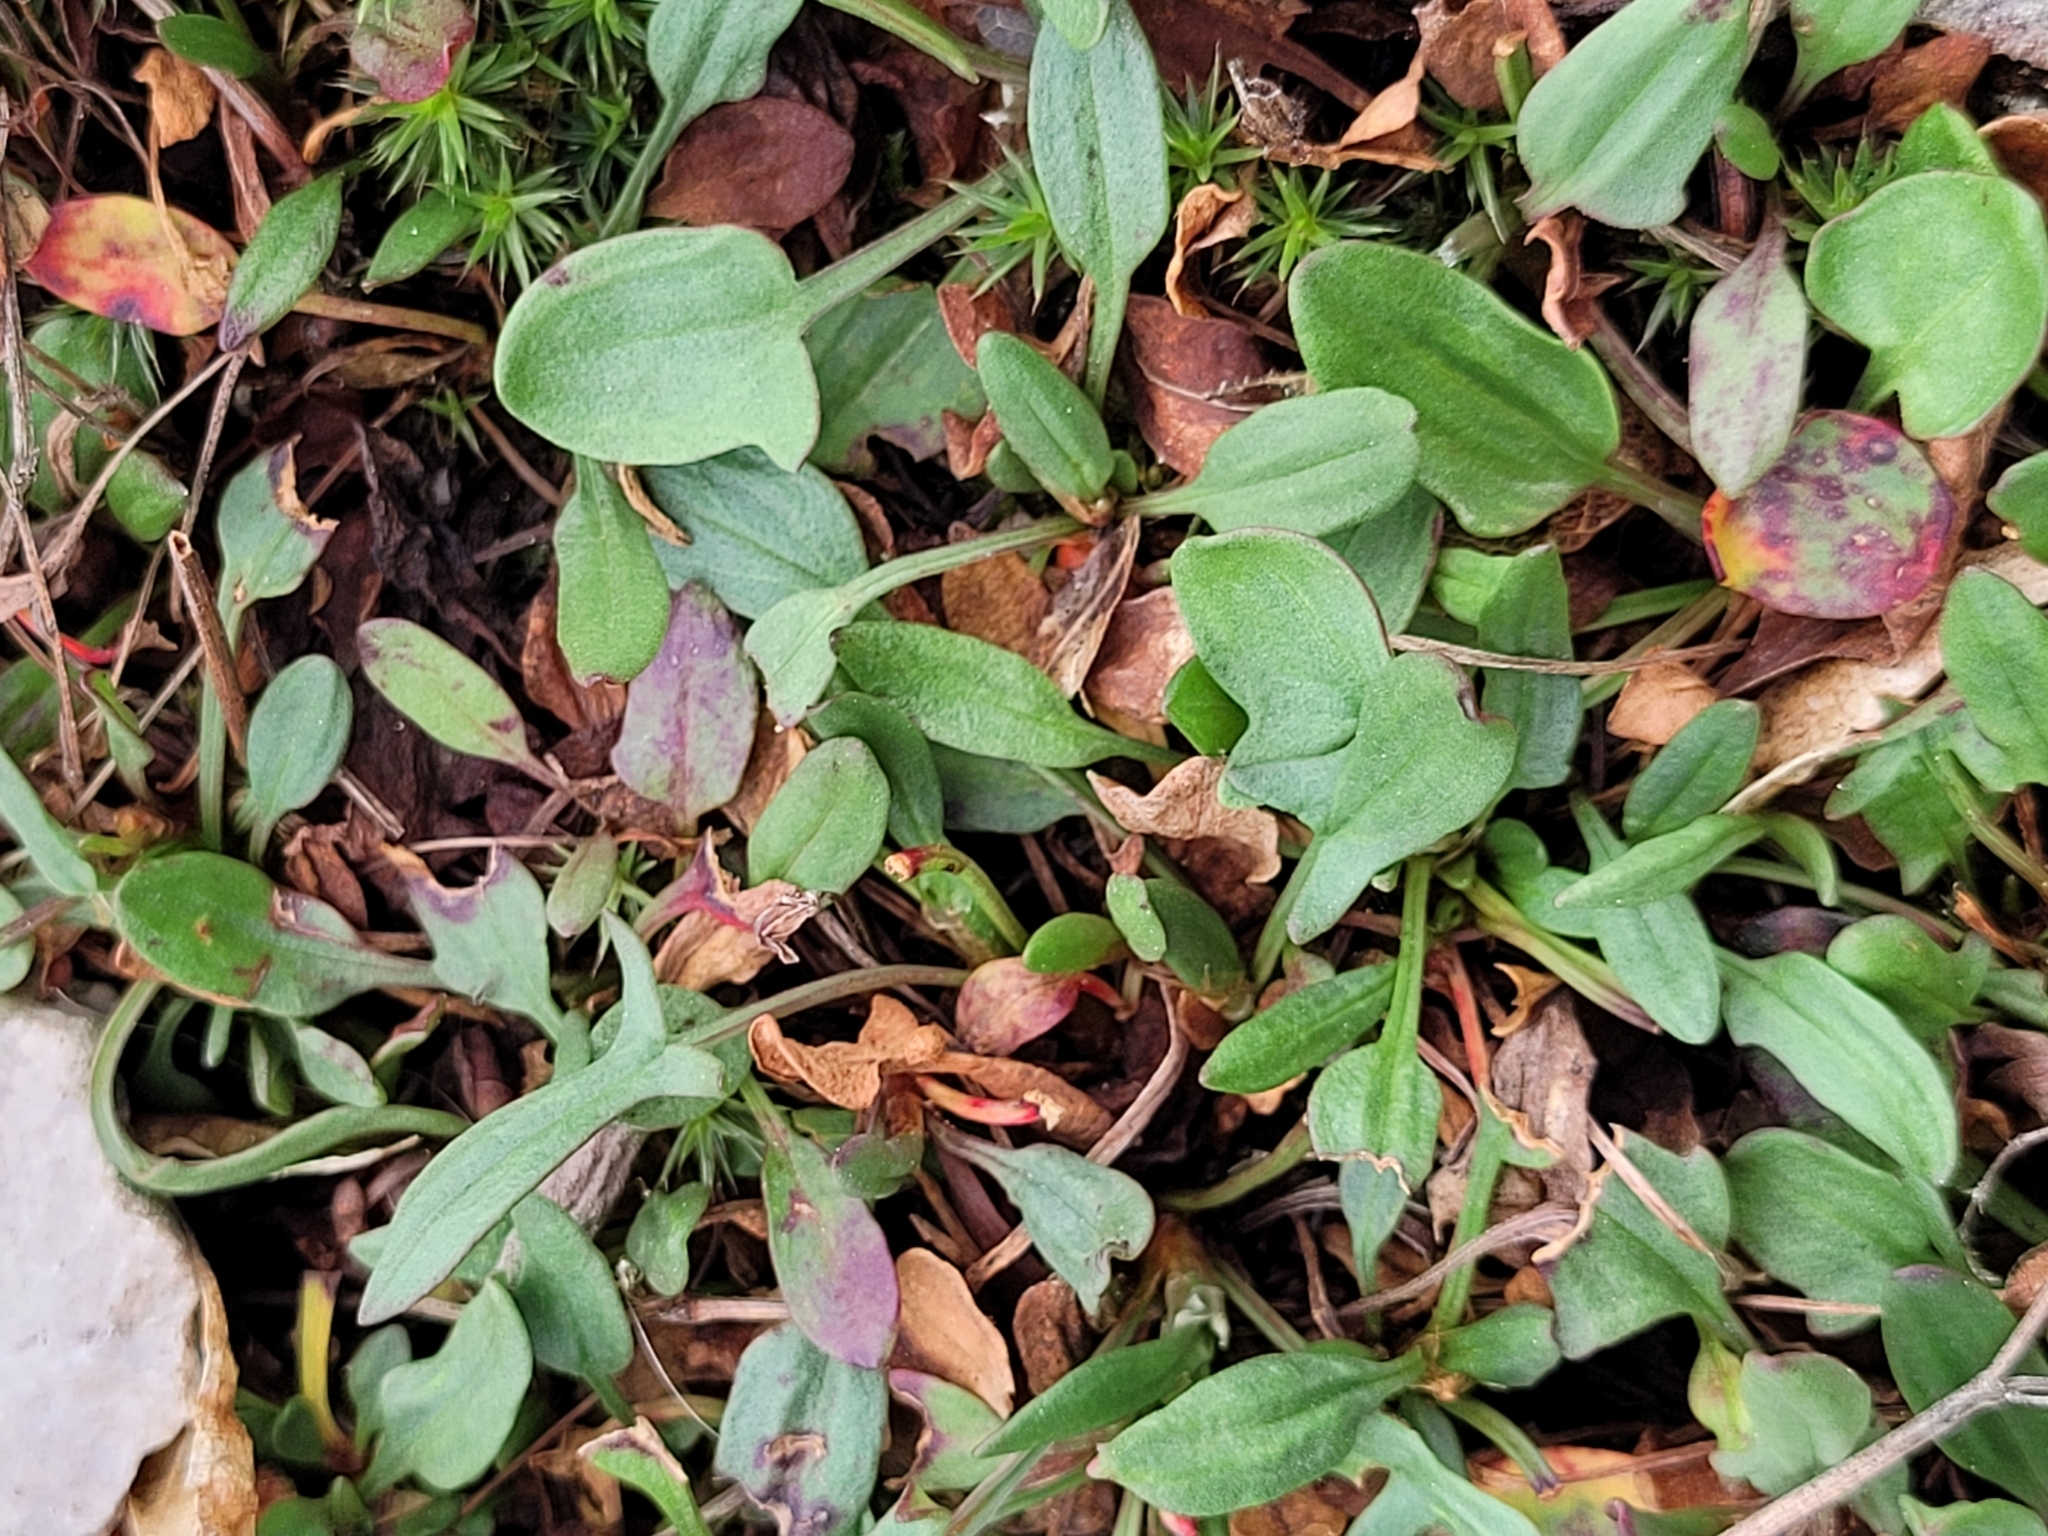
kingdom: Plantae
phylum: Tracheophyta
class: Magnoliopsida
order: Caryophyllales
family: Polygonaceae
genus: Rumex
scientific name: Rumex acetosella
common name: Common sheep sorrel
